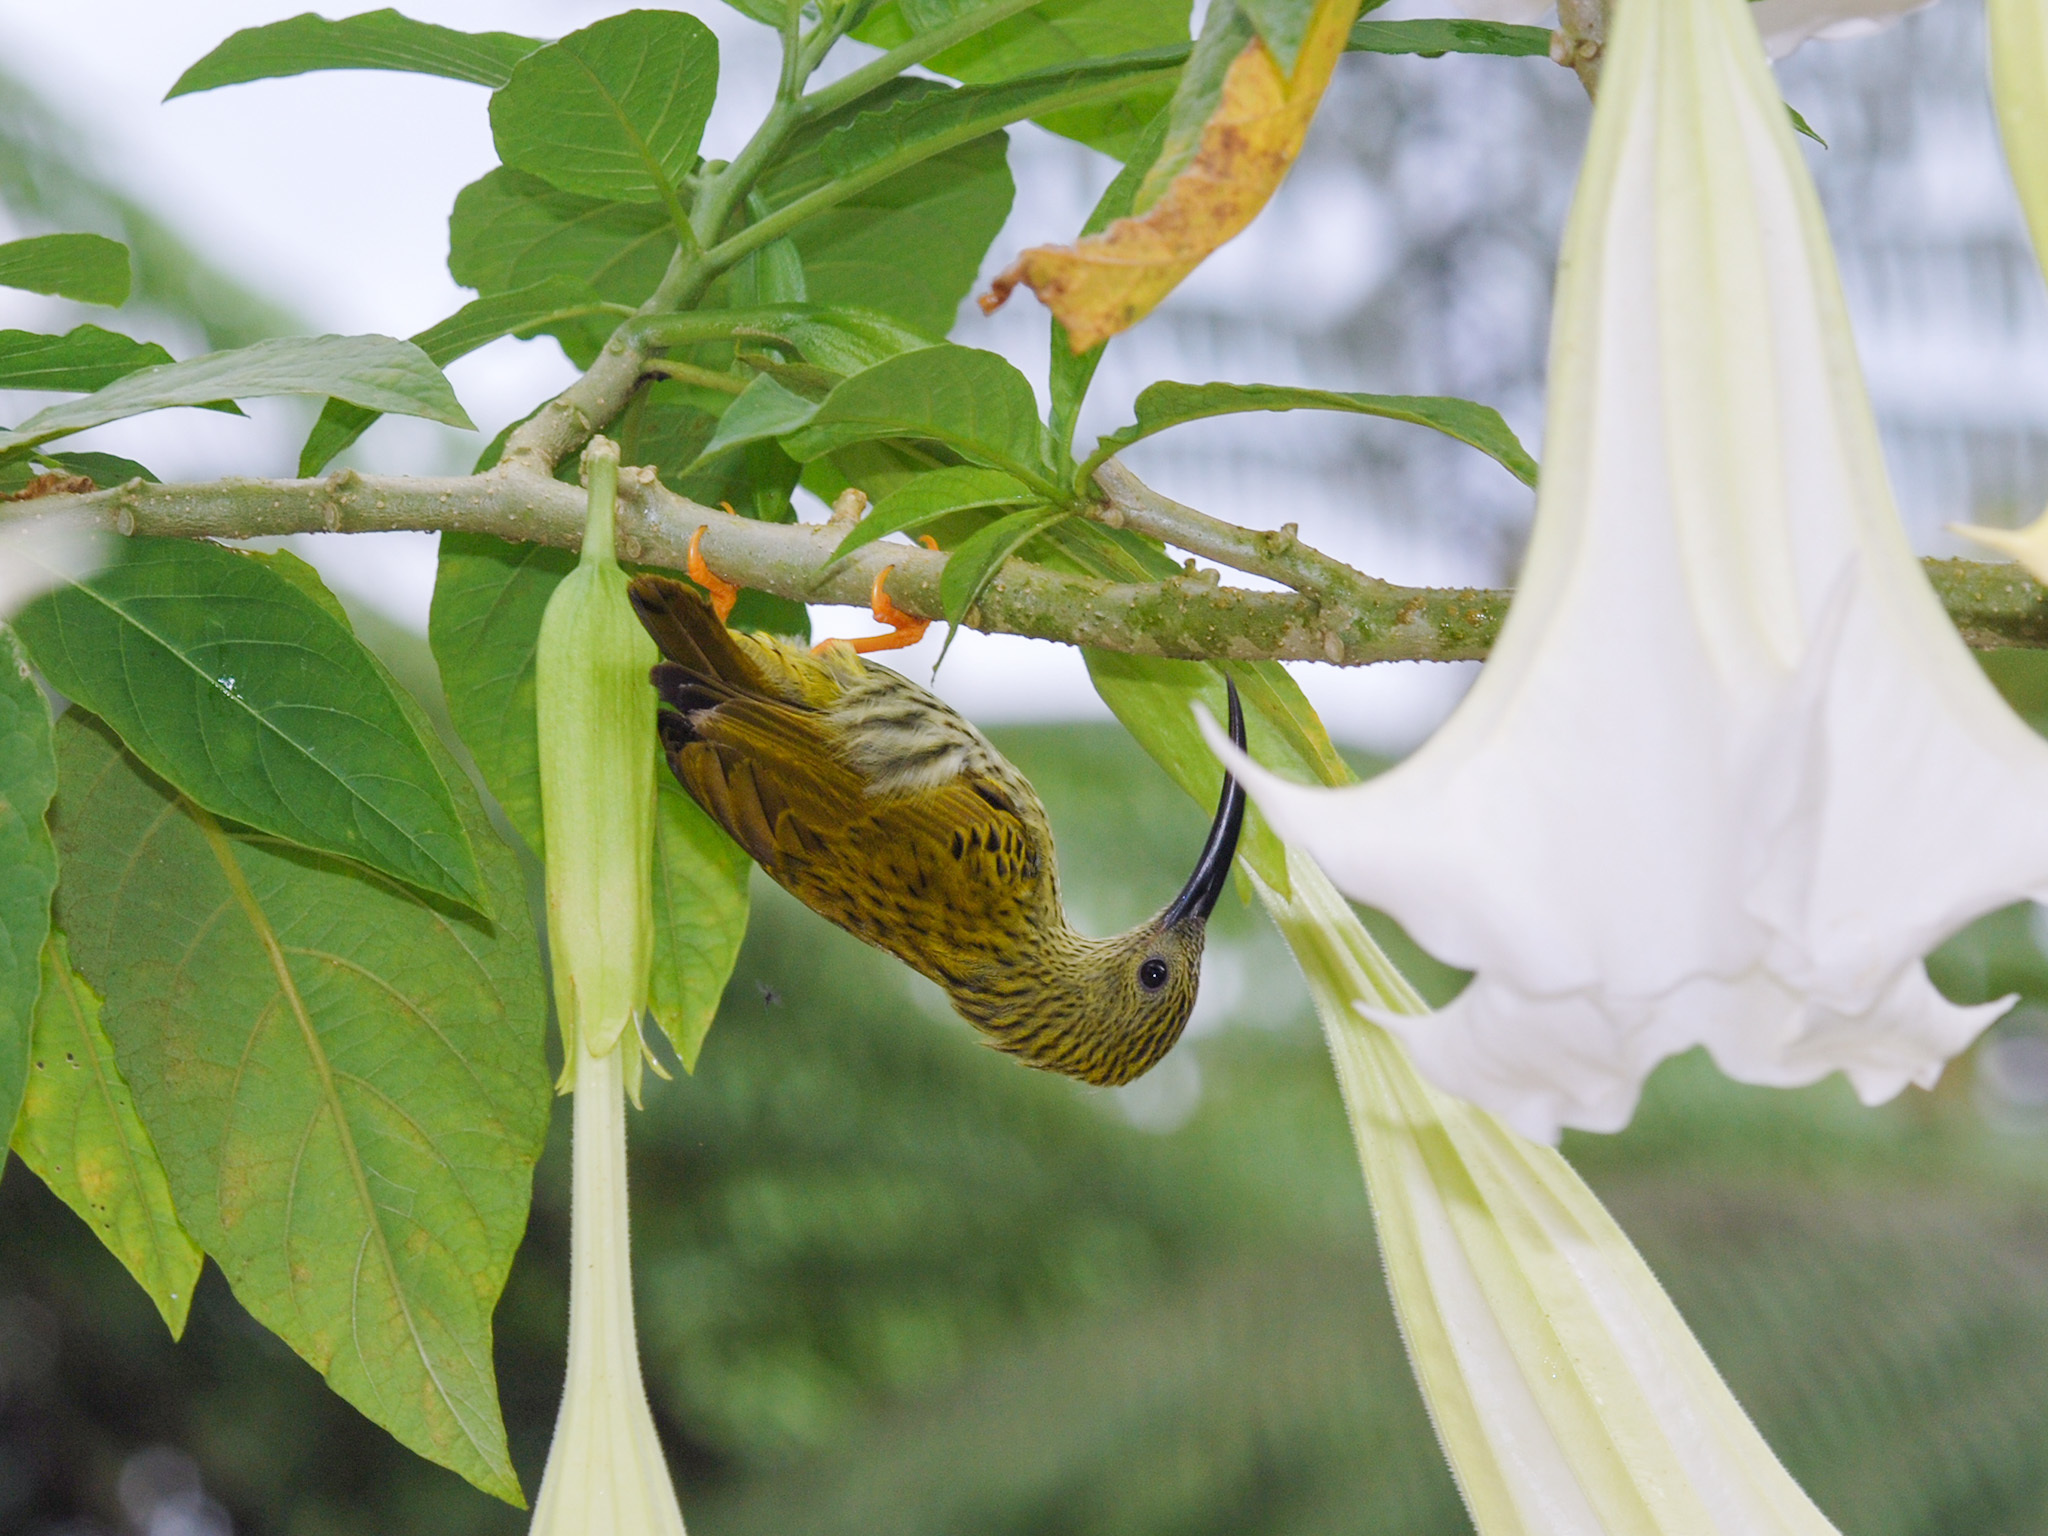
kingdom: Animalia
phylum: Chordata
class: Aves
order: Passeriformes
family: Nectariniidae
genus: Arachnothera
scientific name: Arachnothera magna
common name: Streaked spiderhunter
